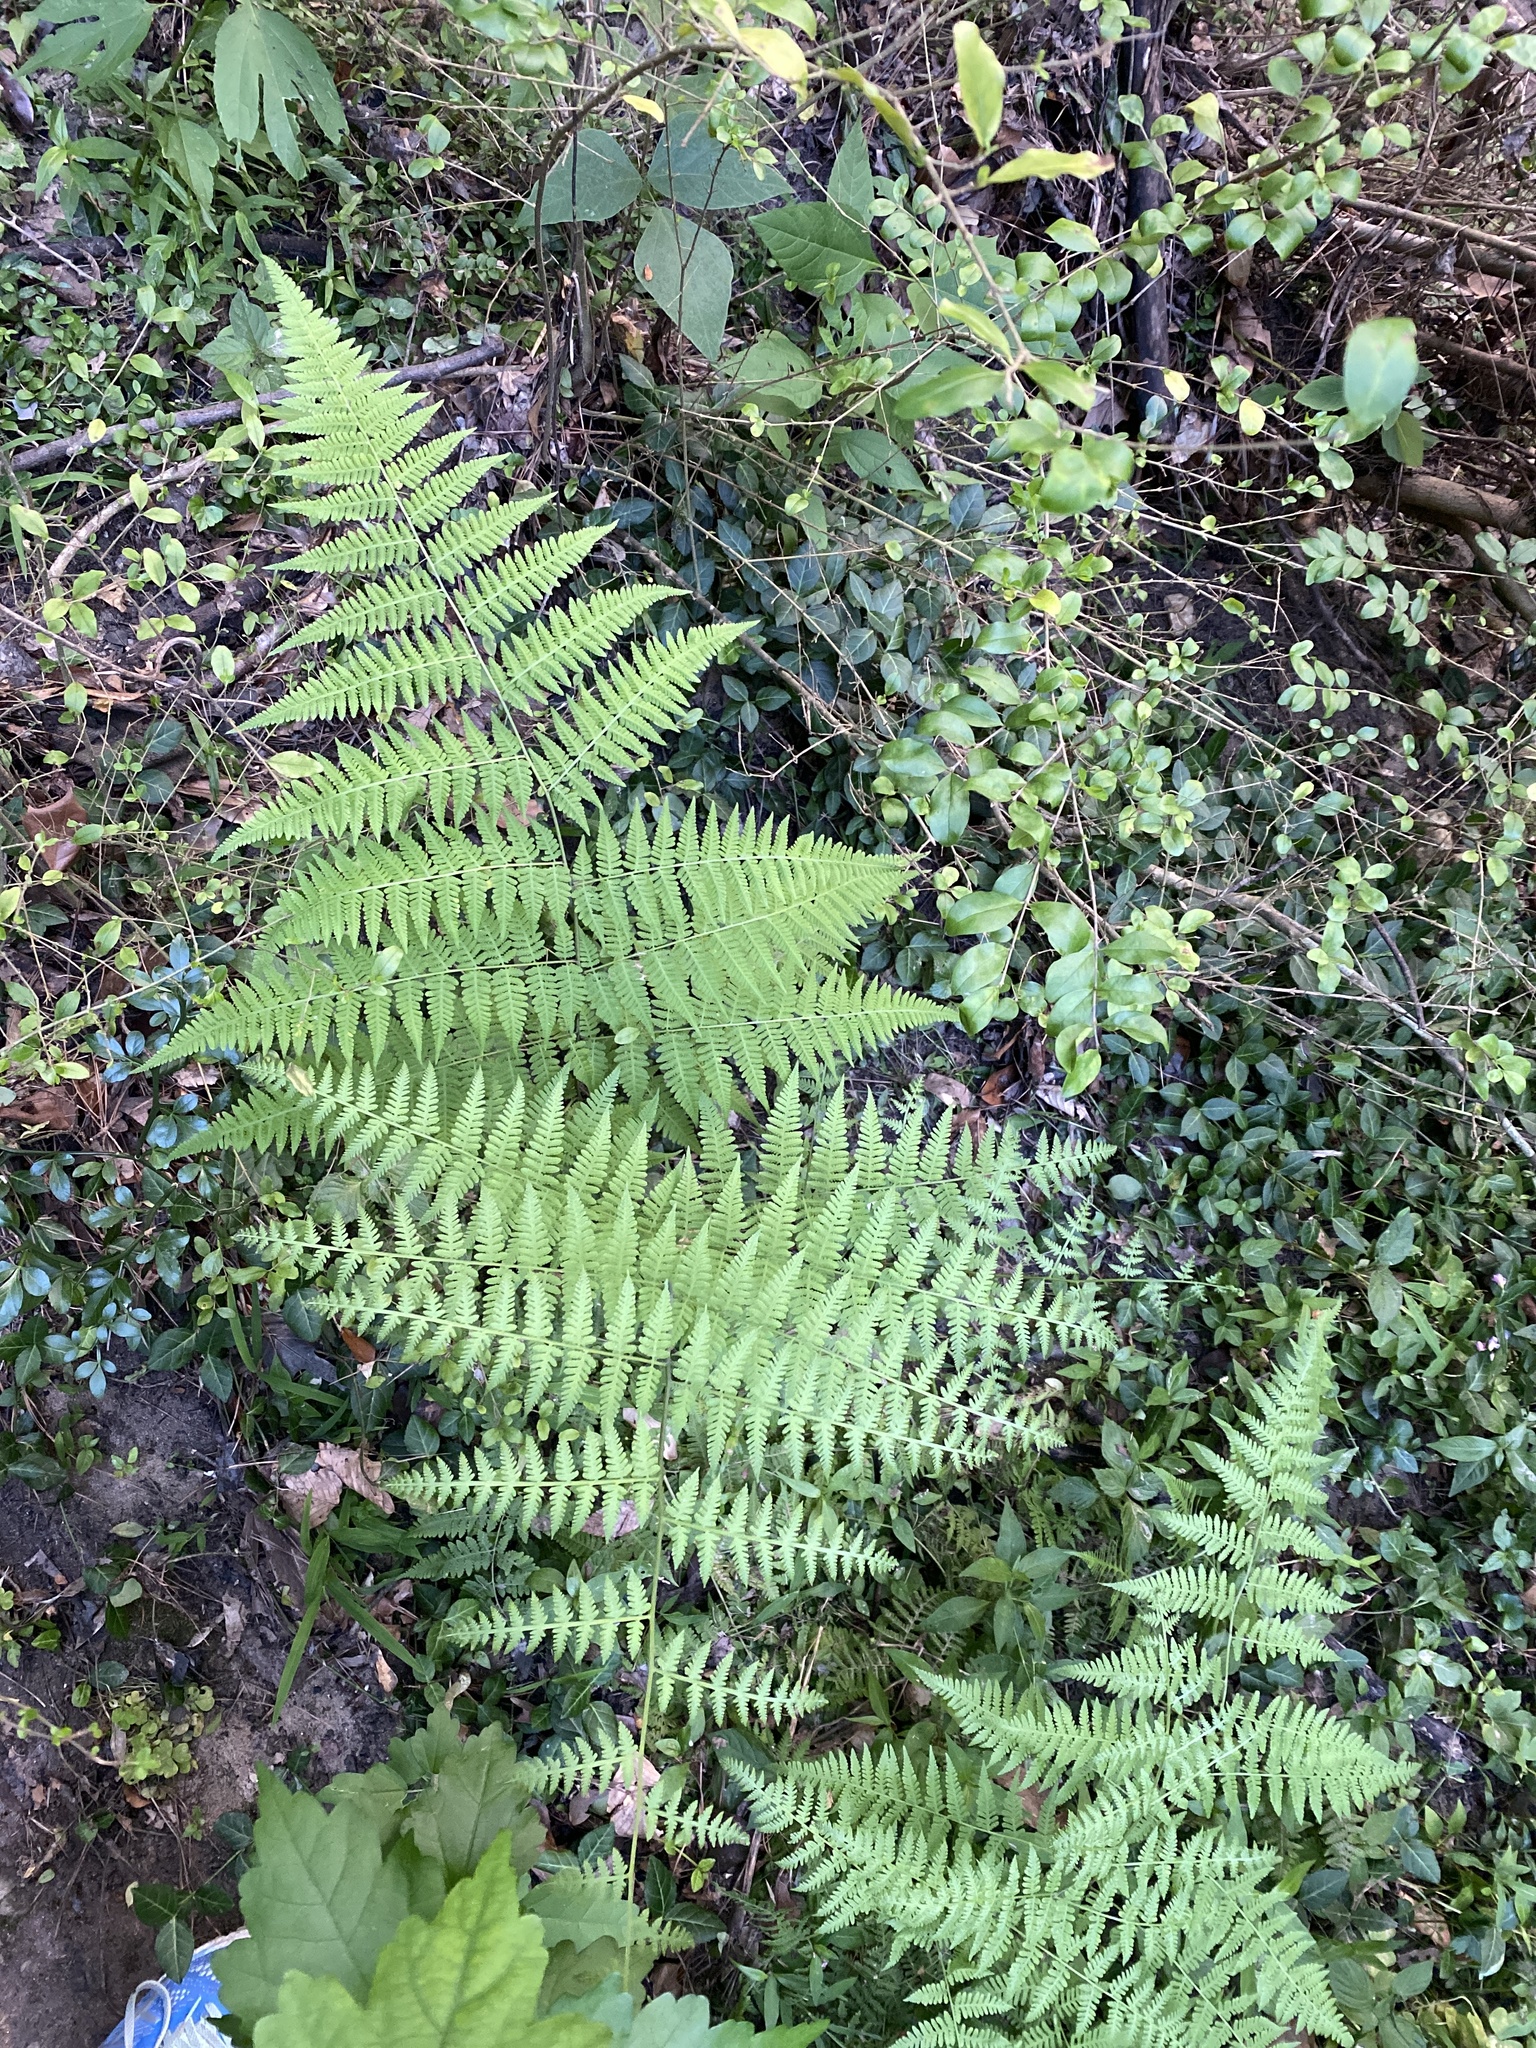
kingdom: Plantae
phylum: Tracheophyta
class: Polypodiopsida
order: Polypodiales
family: Thelypteridaceae
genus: Macrothelypteris
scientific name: Macrothelypteris torresiana
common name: Swordfern
